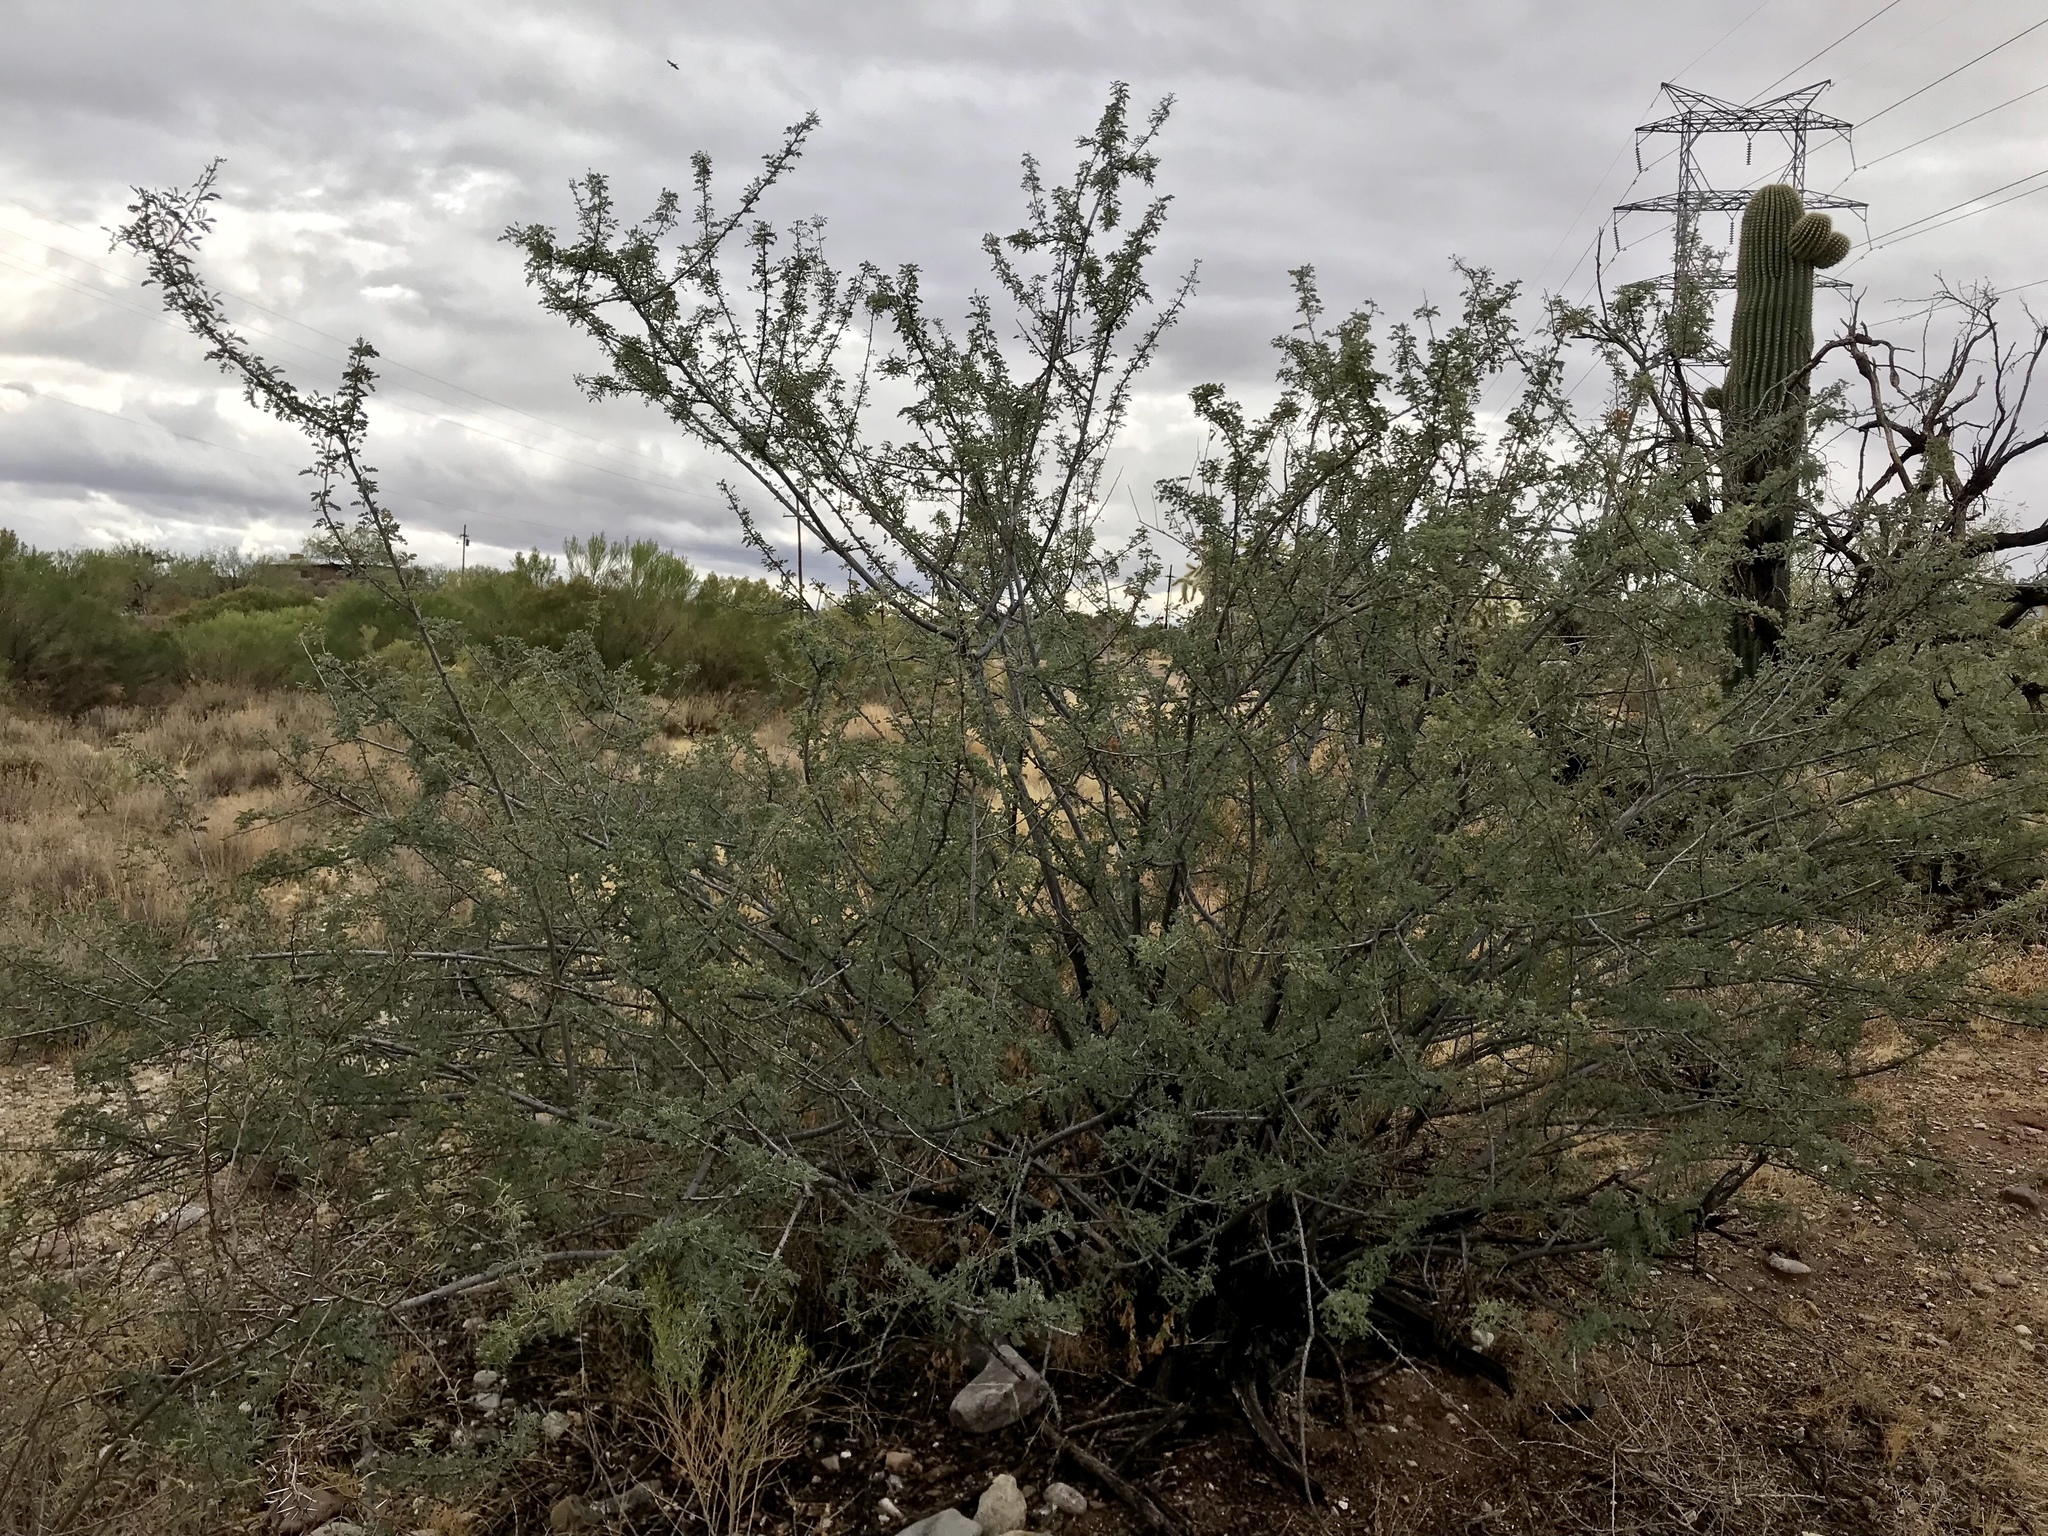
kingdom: Plantae
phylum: Tracheophyta
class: Magnoliopsida
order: Fabales
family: Fabaceae
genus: Senegalia
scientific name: Senegalia greggii
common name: Texas-mimosa
